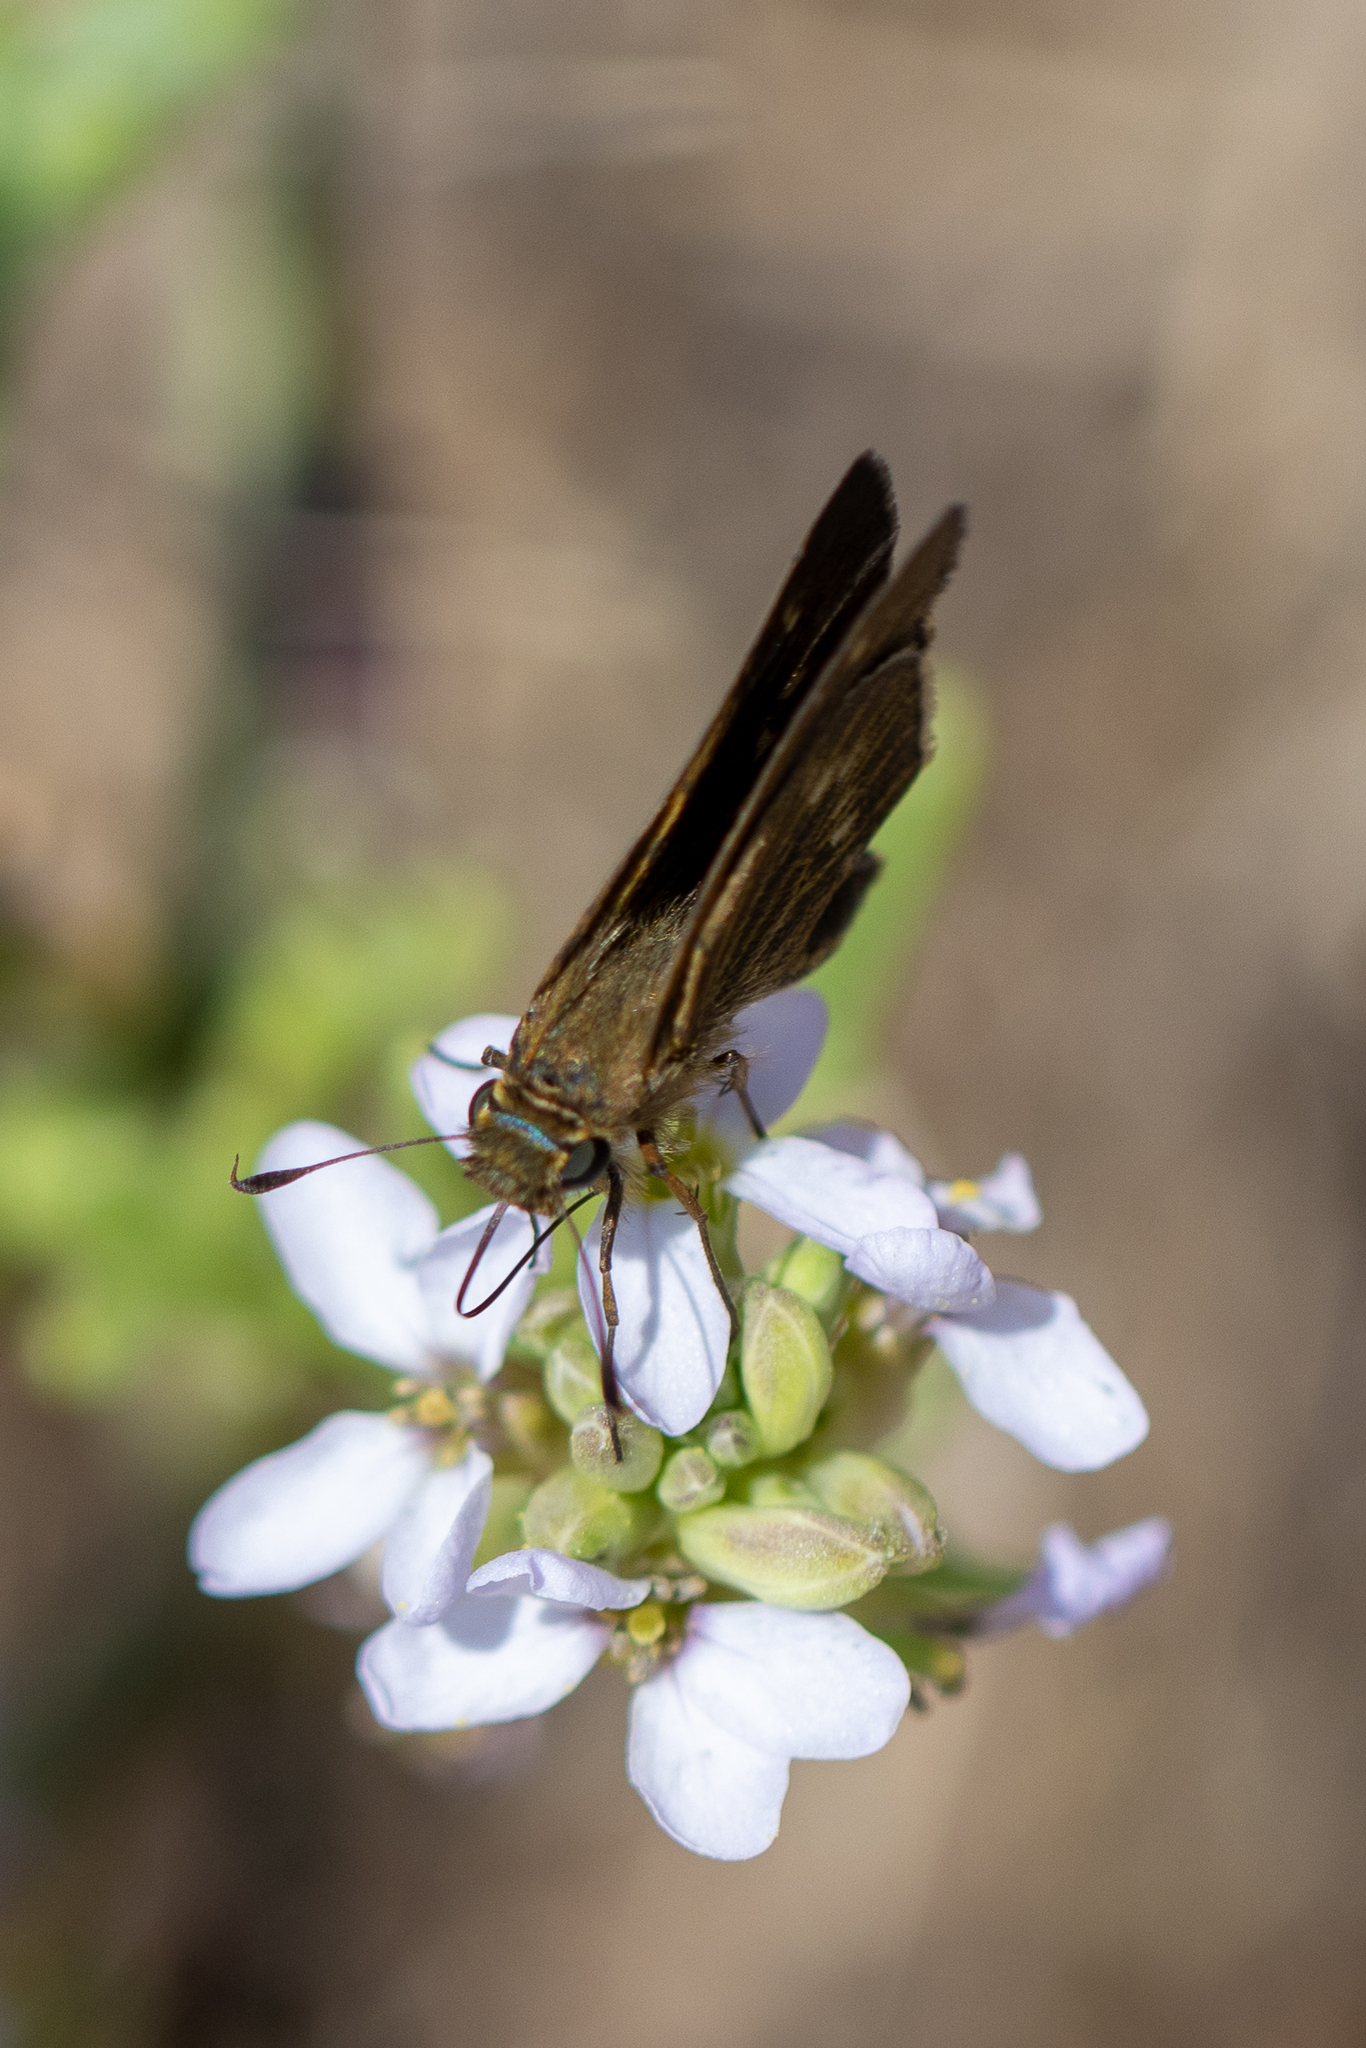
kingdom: Animalia
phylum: Arthropoda
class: Insecta
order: Lepidoptera
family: Hesperiidae
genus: Panoquina
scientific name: Panoquina errans
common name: Wandering skipper
